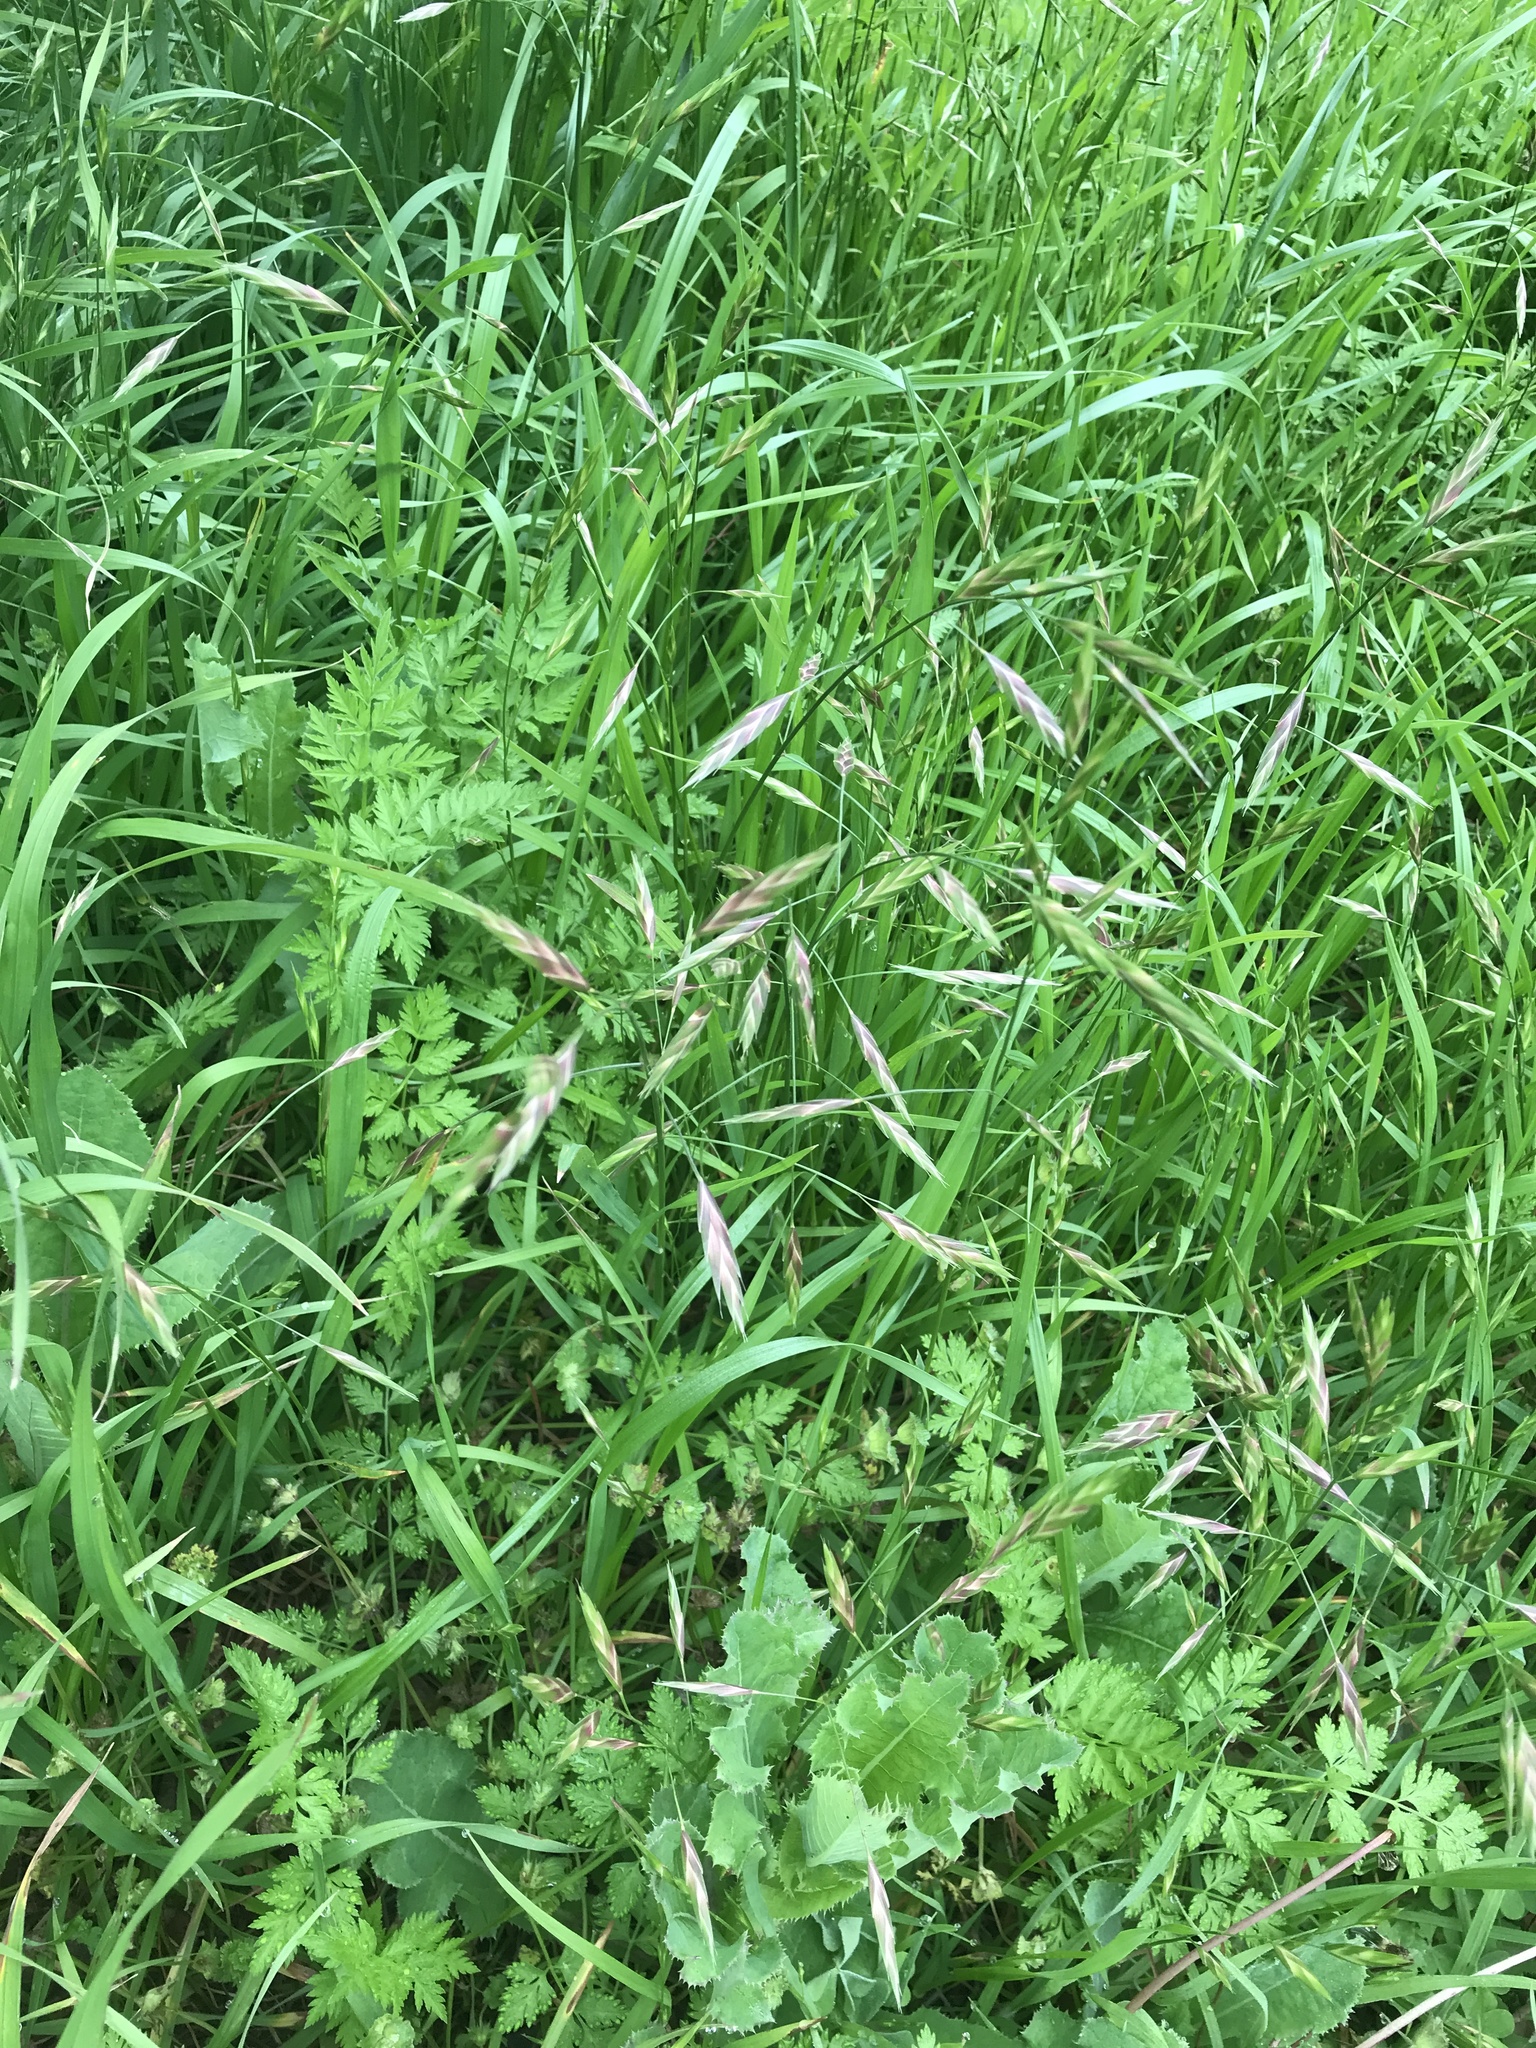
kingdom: Plantae
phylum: Tracheophyta
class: Liliopsida
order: Poales
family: Poaceae
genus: Bromus
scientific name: Bromus catharticus
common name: Rescuegrass
